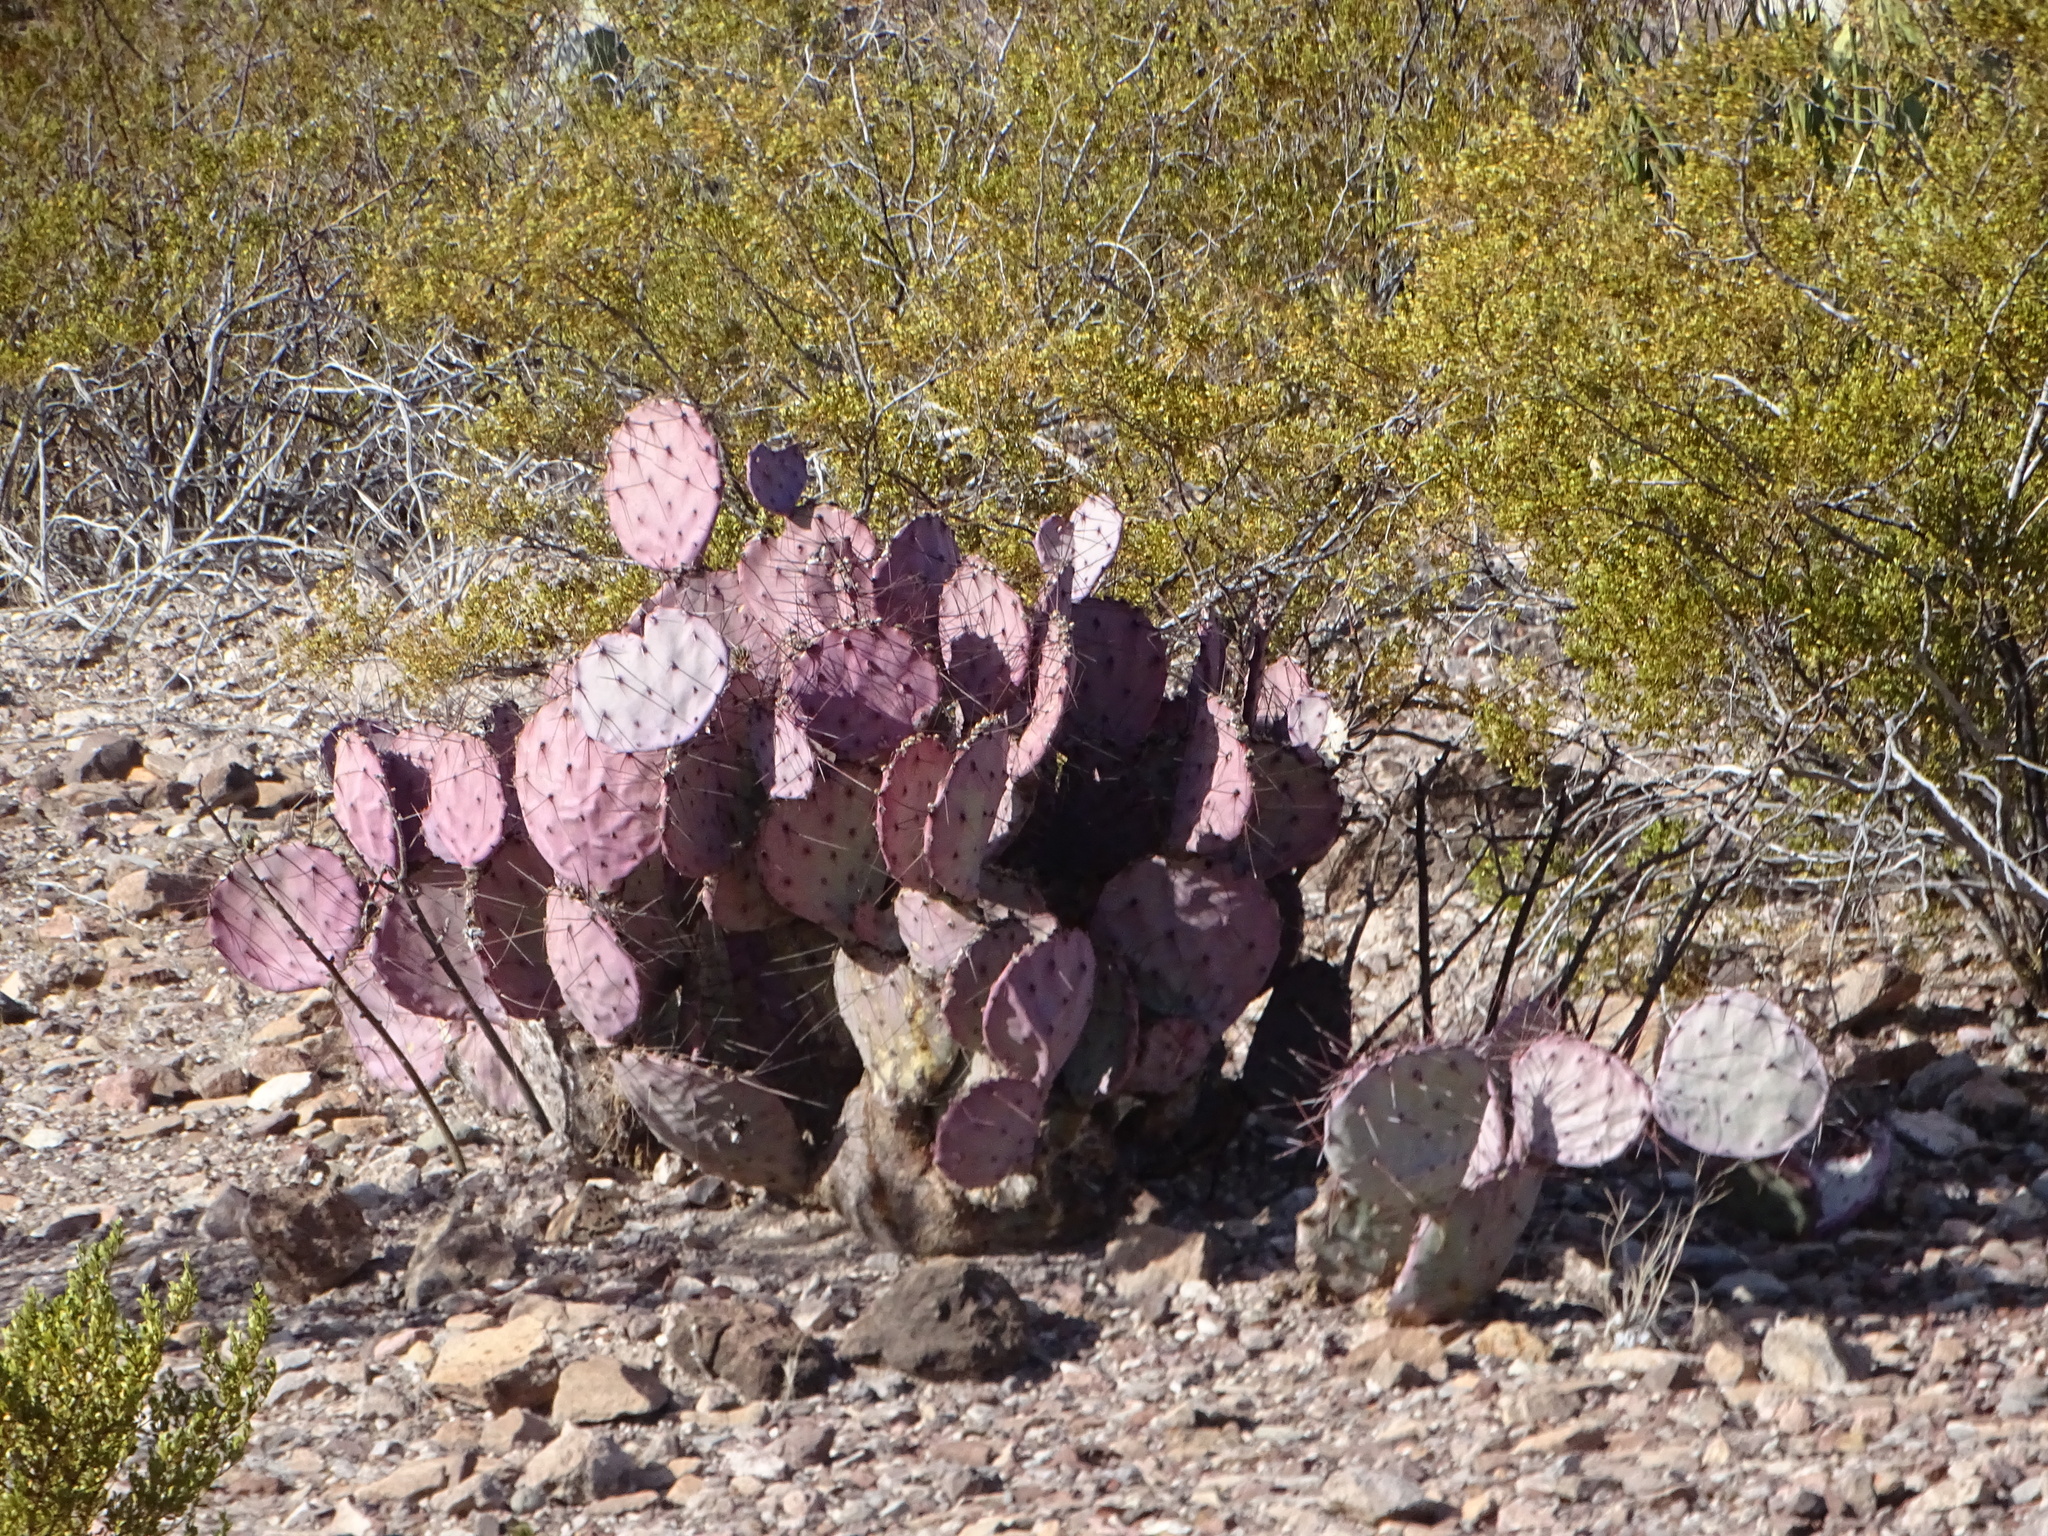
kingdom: Plantae
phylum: Tracheophyta
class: Magnoliopsida
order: Caryophyllales
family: Cactaceae
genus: Opuntia
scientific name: Opuntia phaeacantha
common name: New mexico prickly-pear
